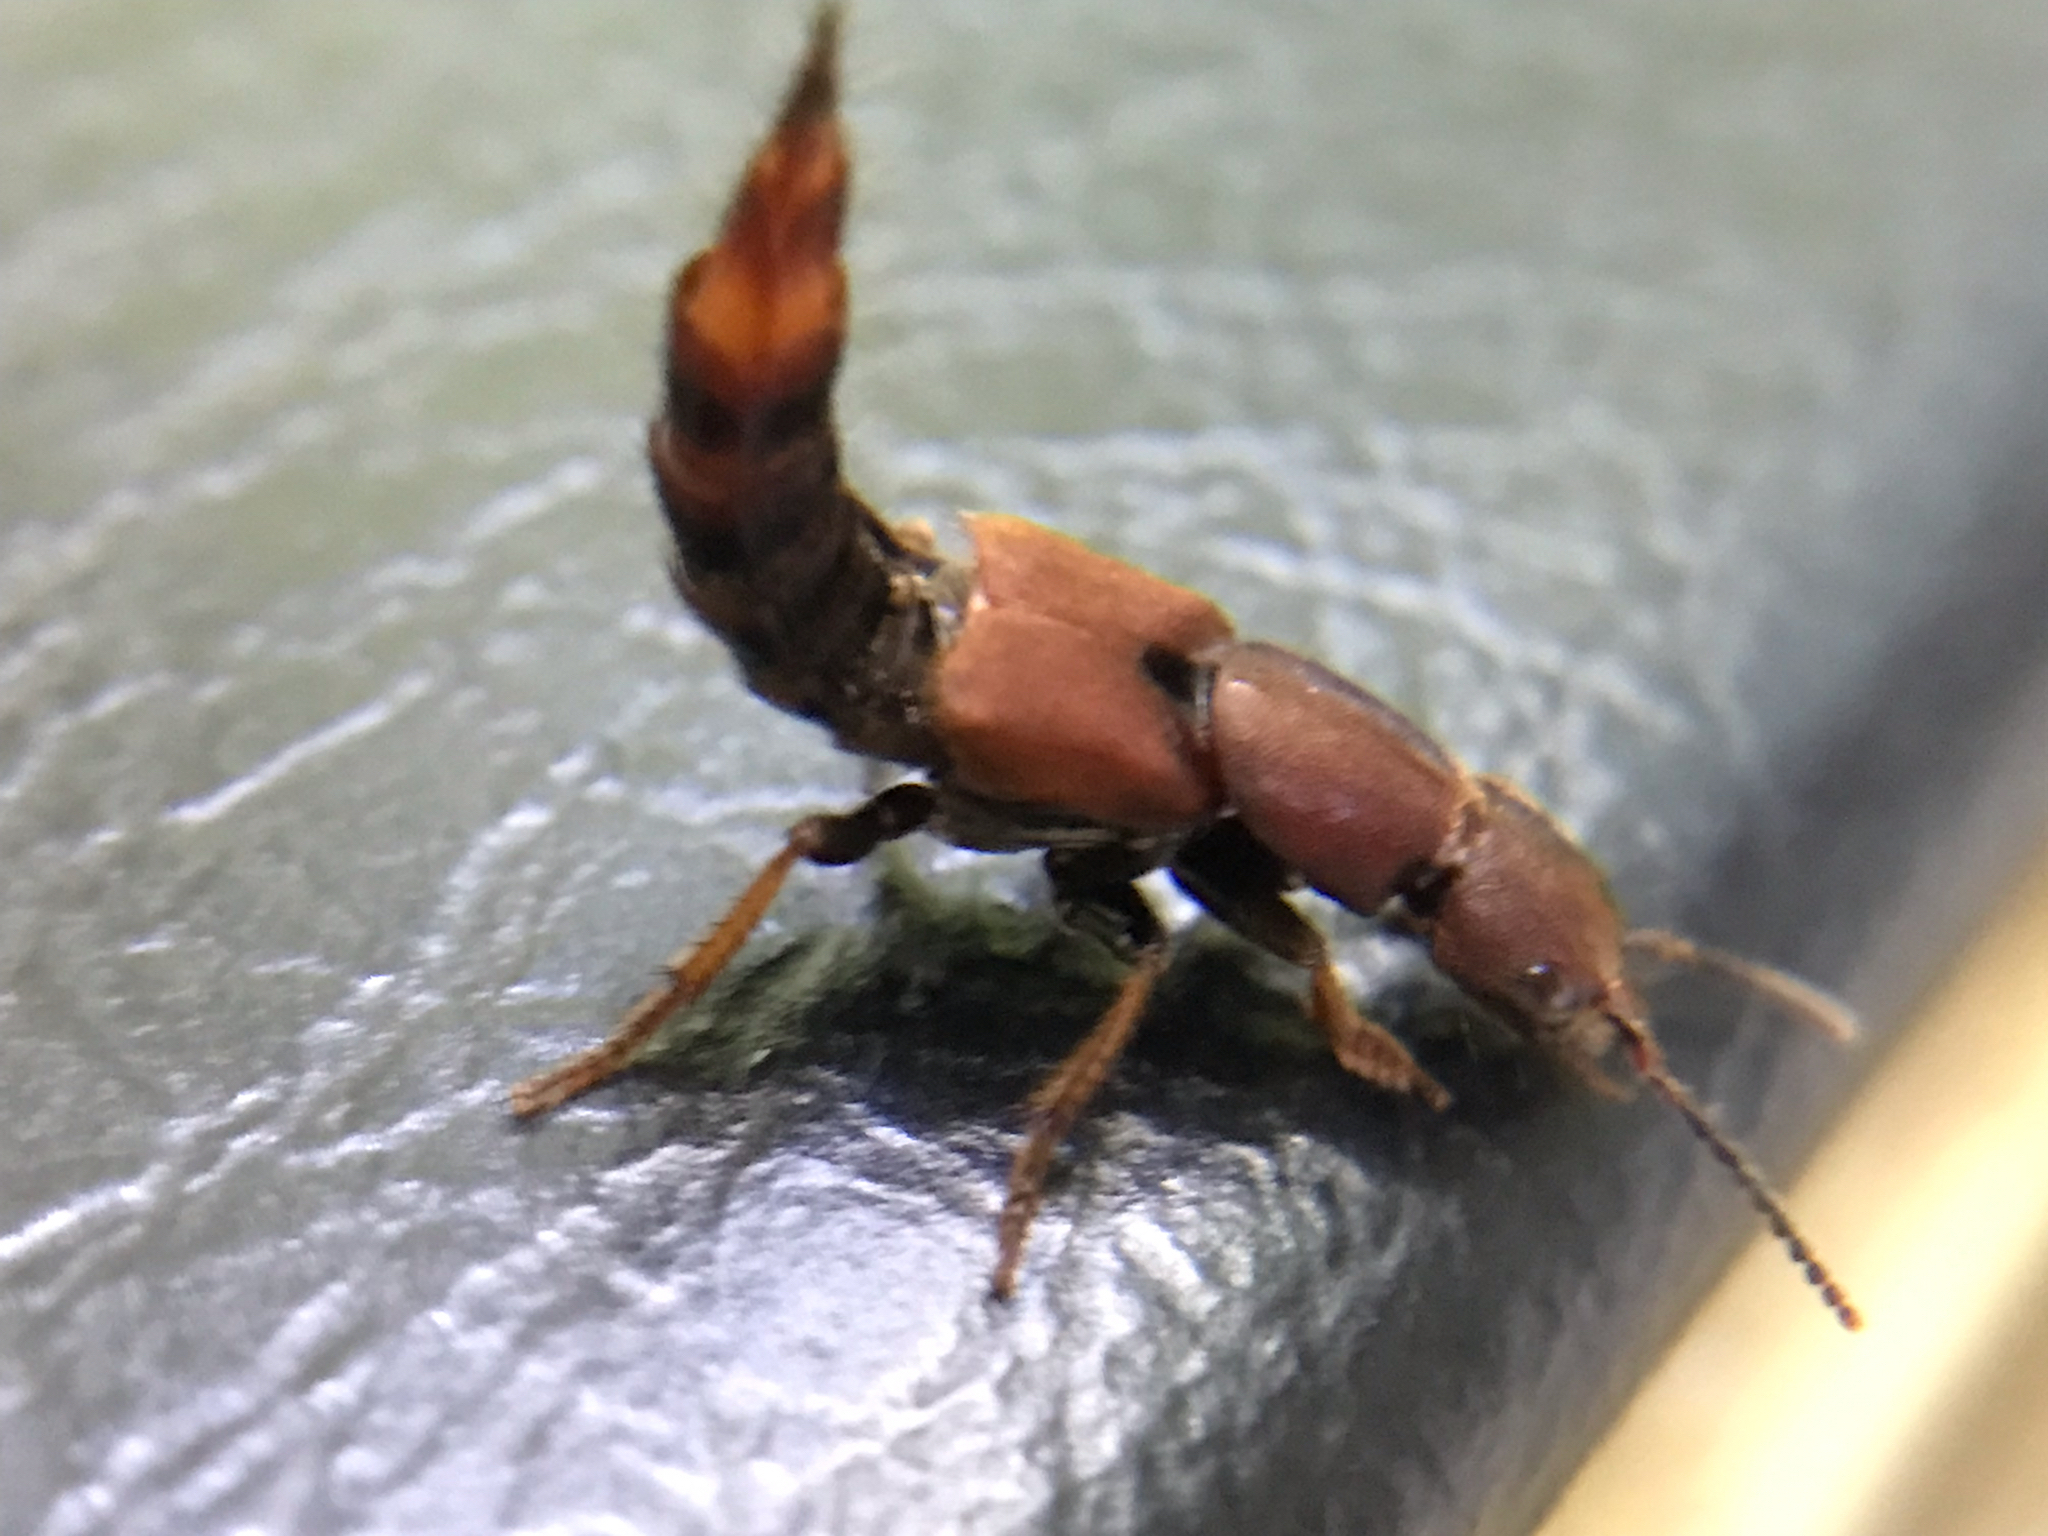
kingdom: Animalia
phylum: Arthropoda
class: Insecta
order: Coleoptera
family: Staphylinidae
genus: Platydracus
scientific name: Platydracus cinnamopterus
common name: Cinnamon rove beetle
